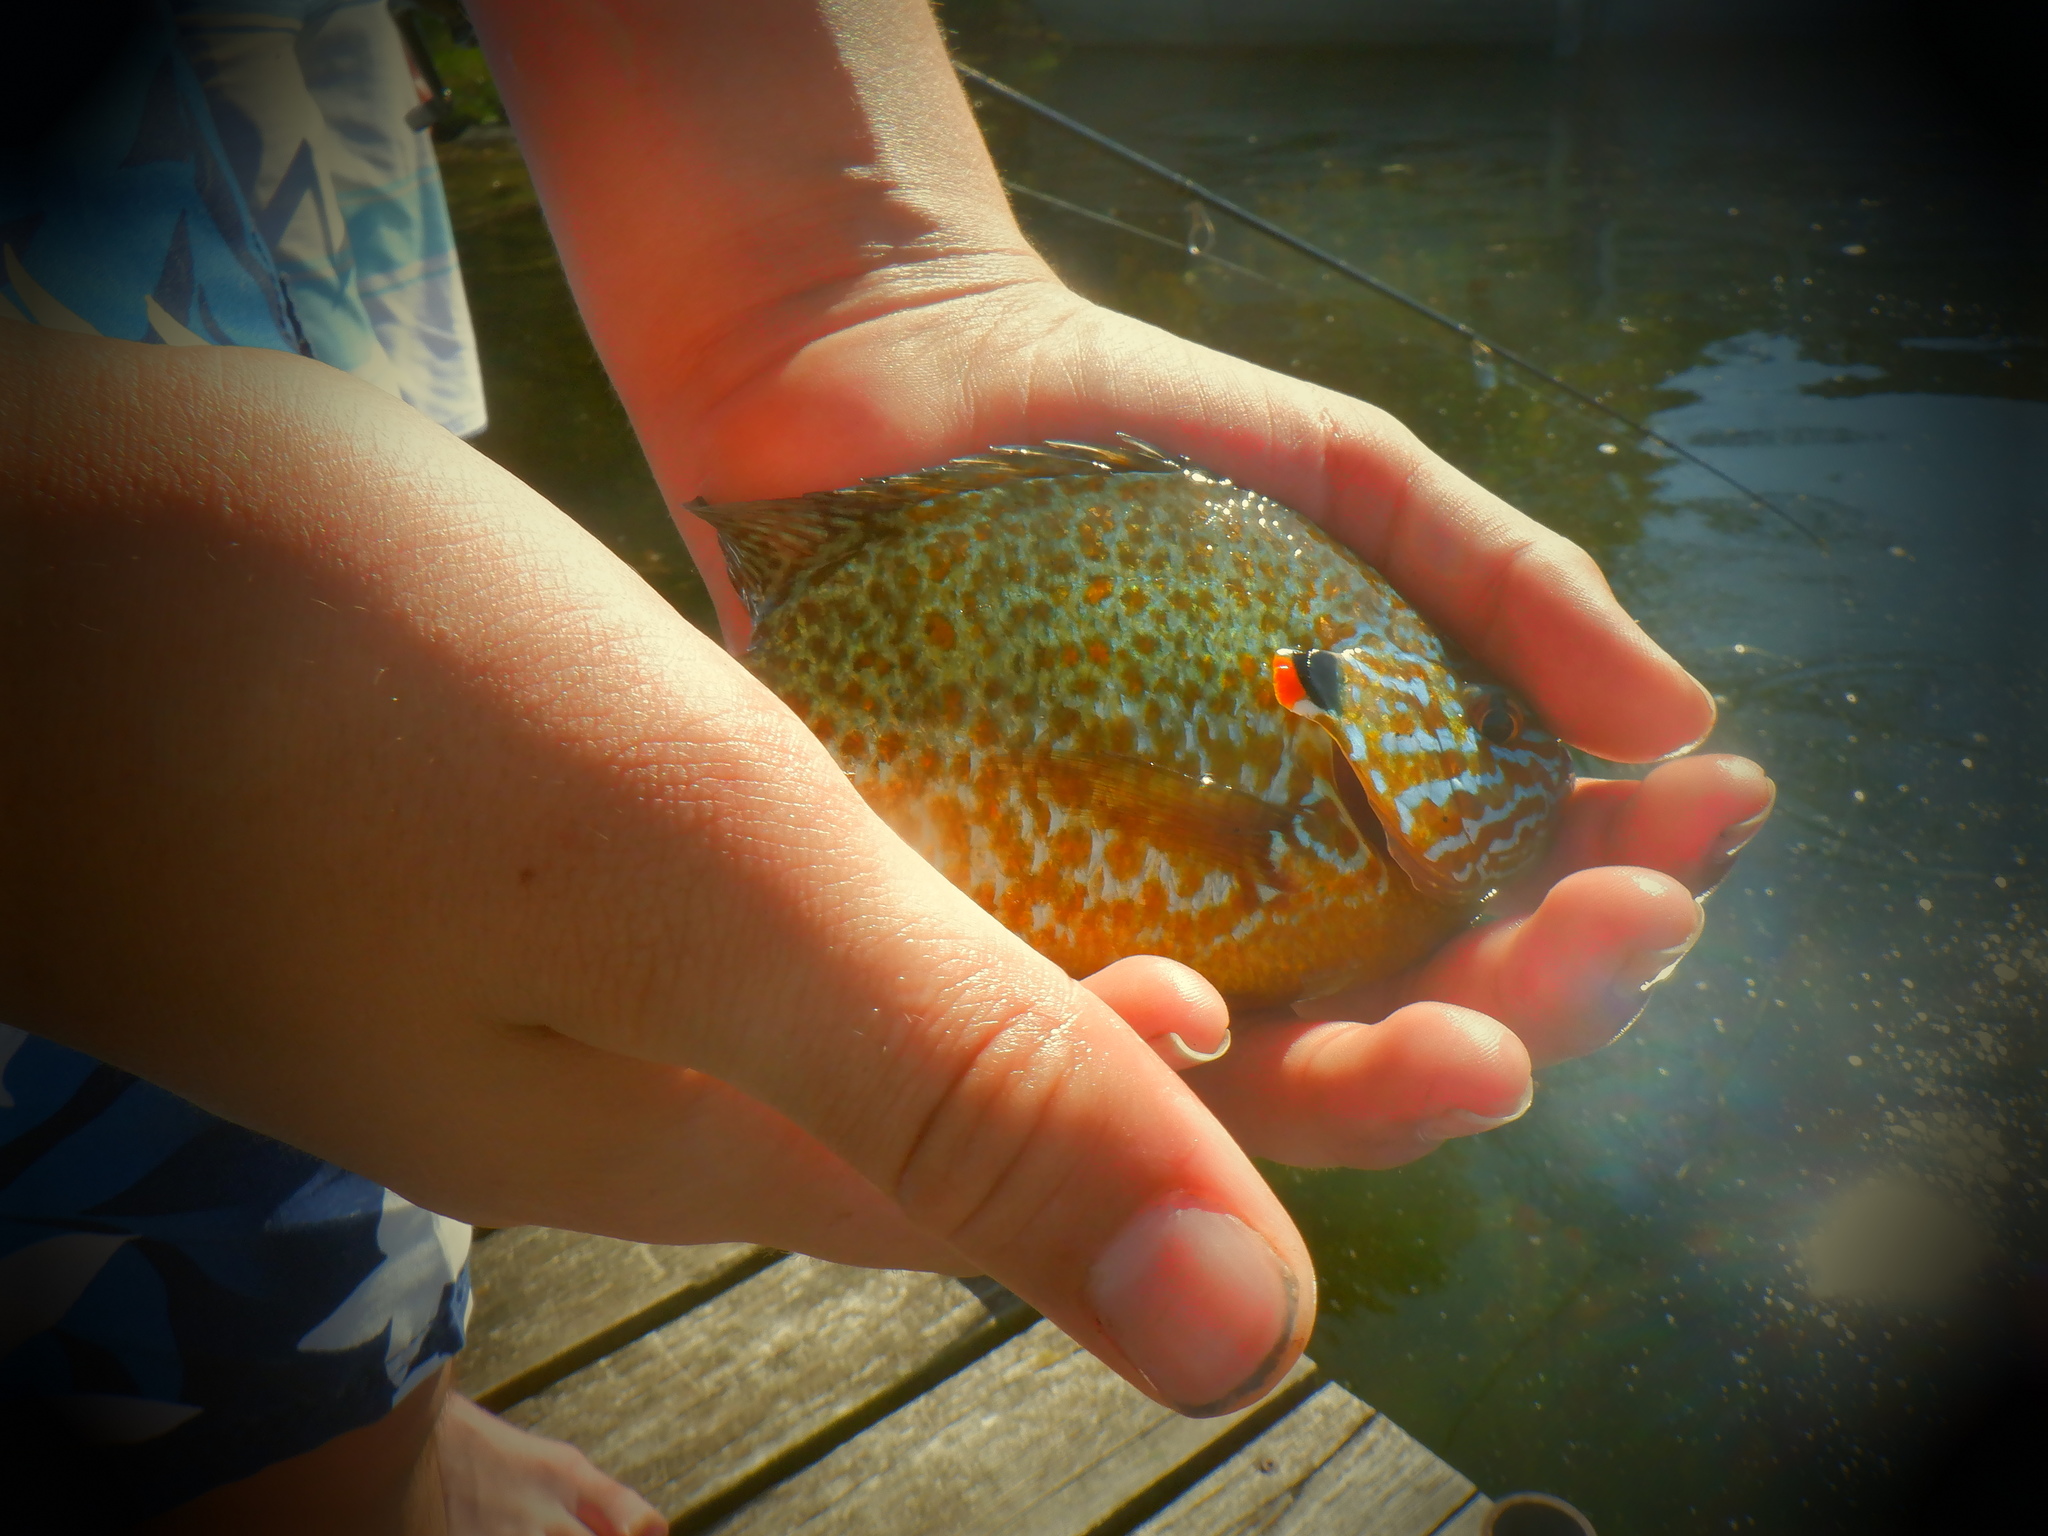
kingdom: Animalia
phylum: Chordata
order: Perciformes
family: Centrarchidae
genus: Lepomis
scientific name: Lepomis gibbosus
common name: Pumpkinseed
